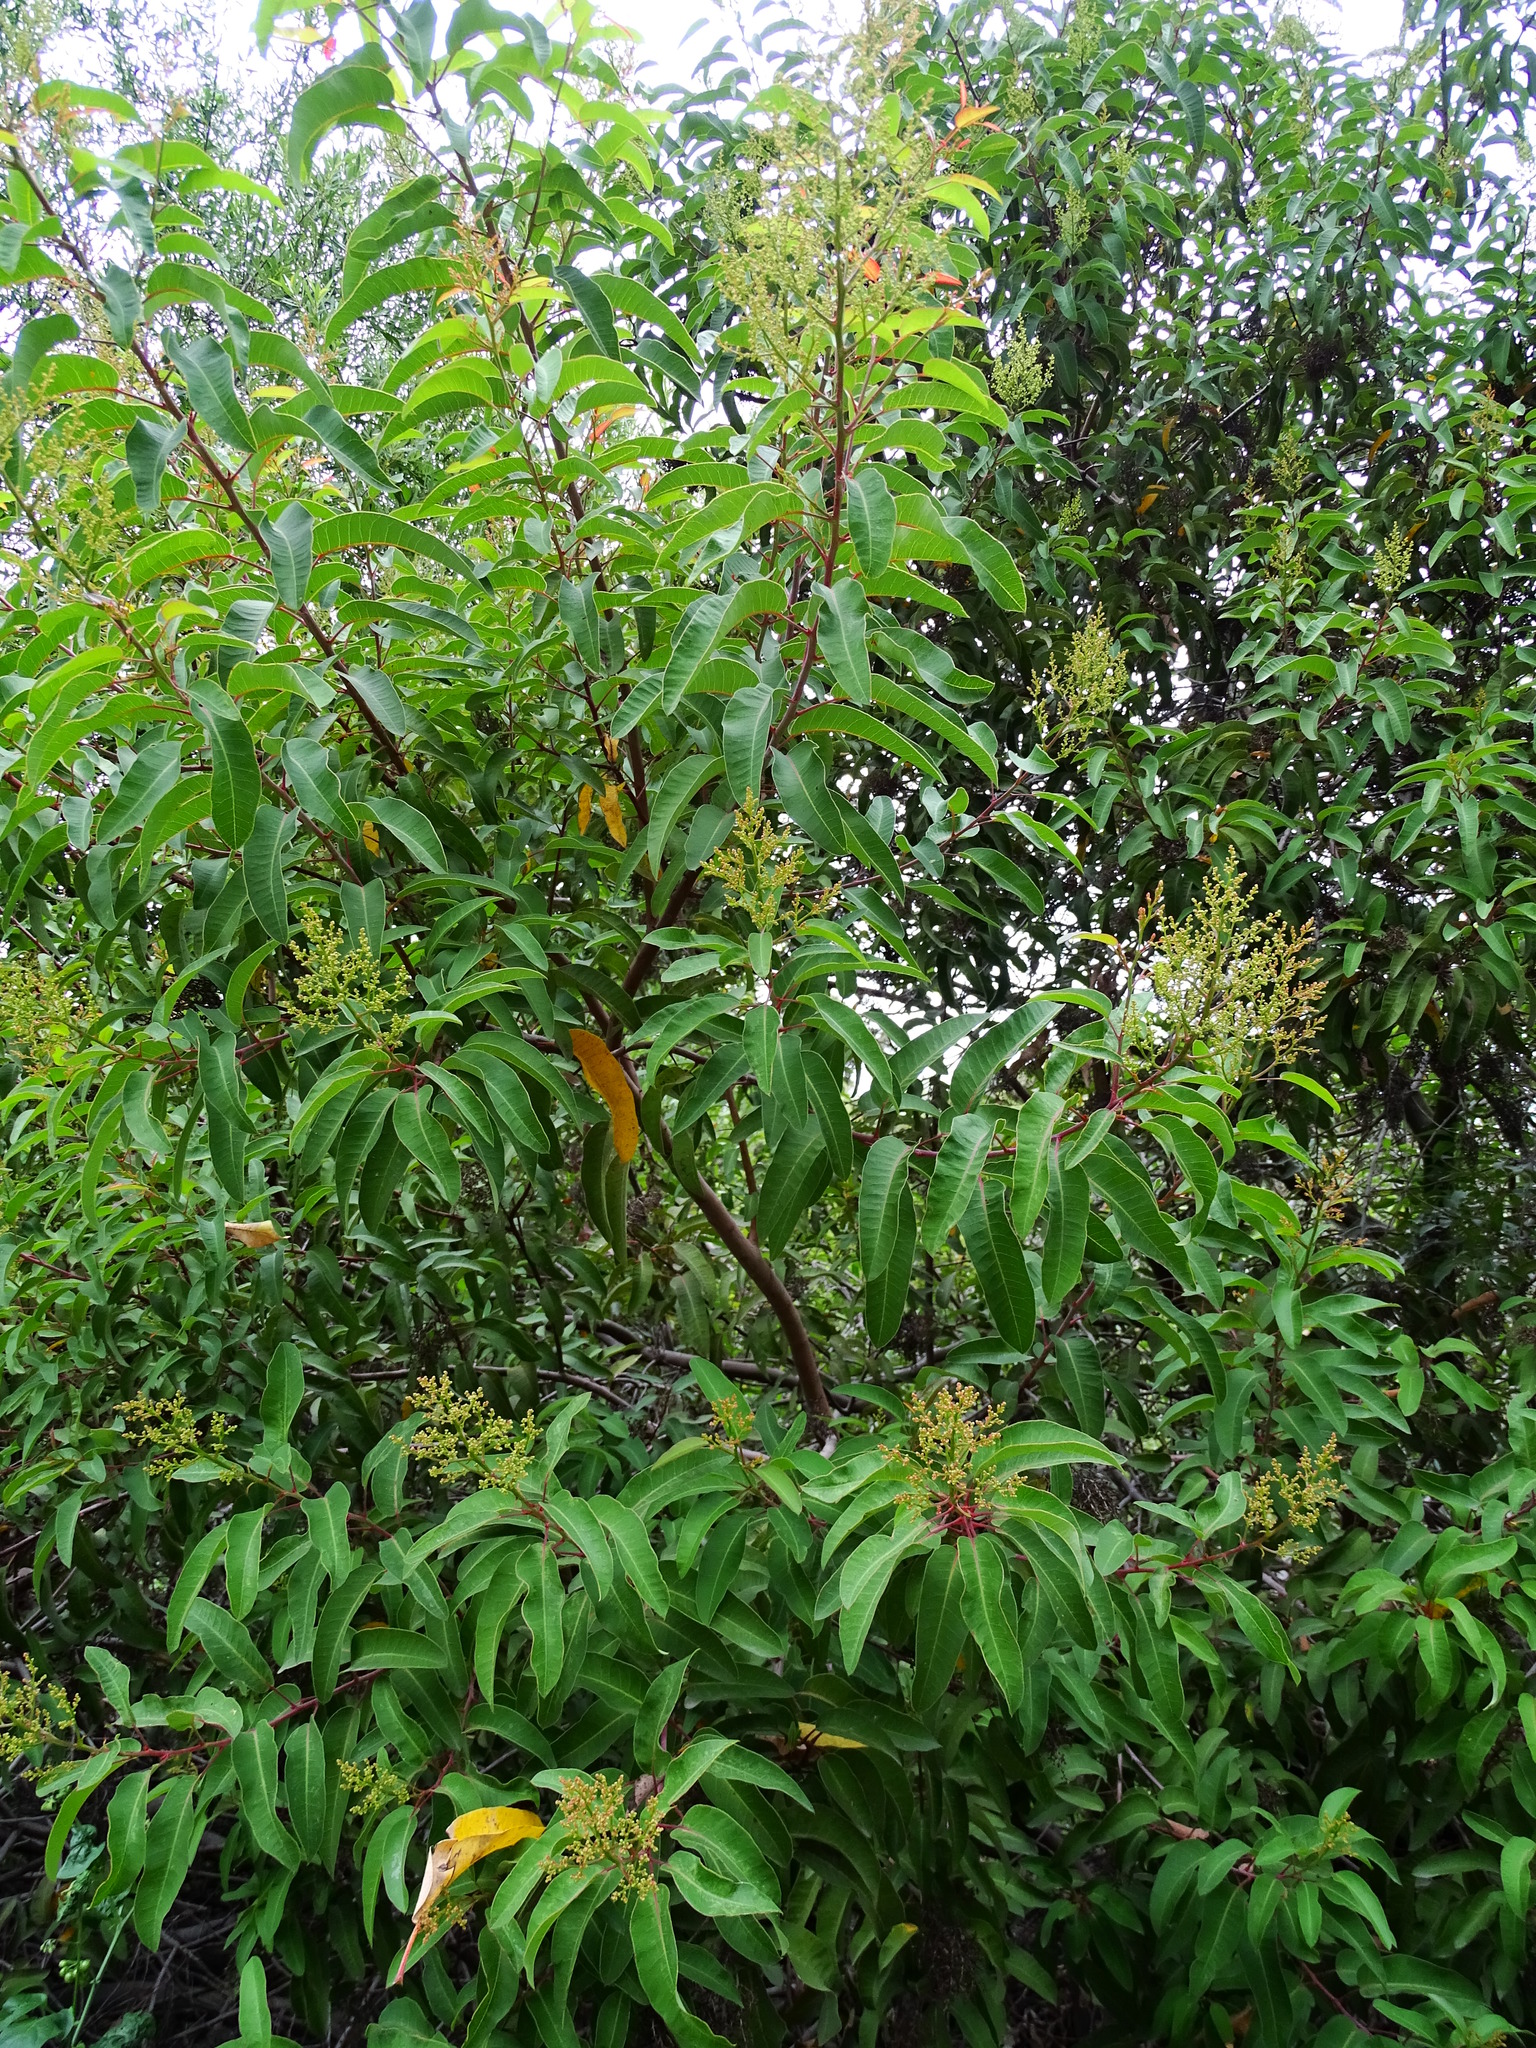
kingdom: Plantae
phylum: Tracheophyta
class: Magnoliopsida
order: Sapindales
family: Anacardiaceae
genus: Malosma
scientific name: Malosma laurina
